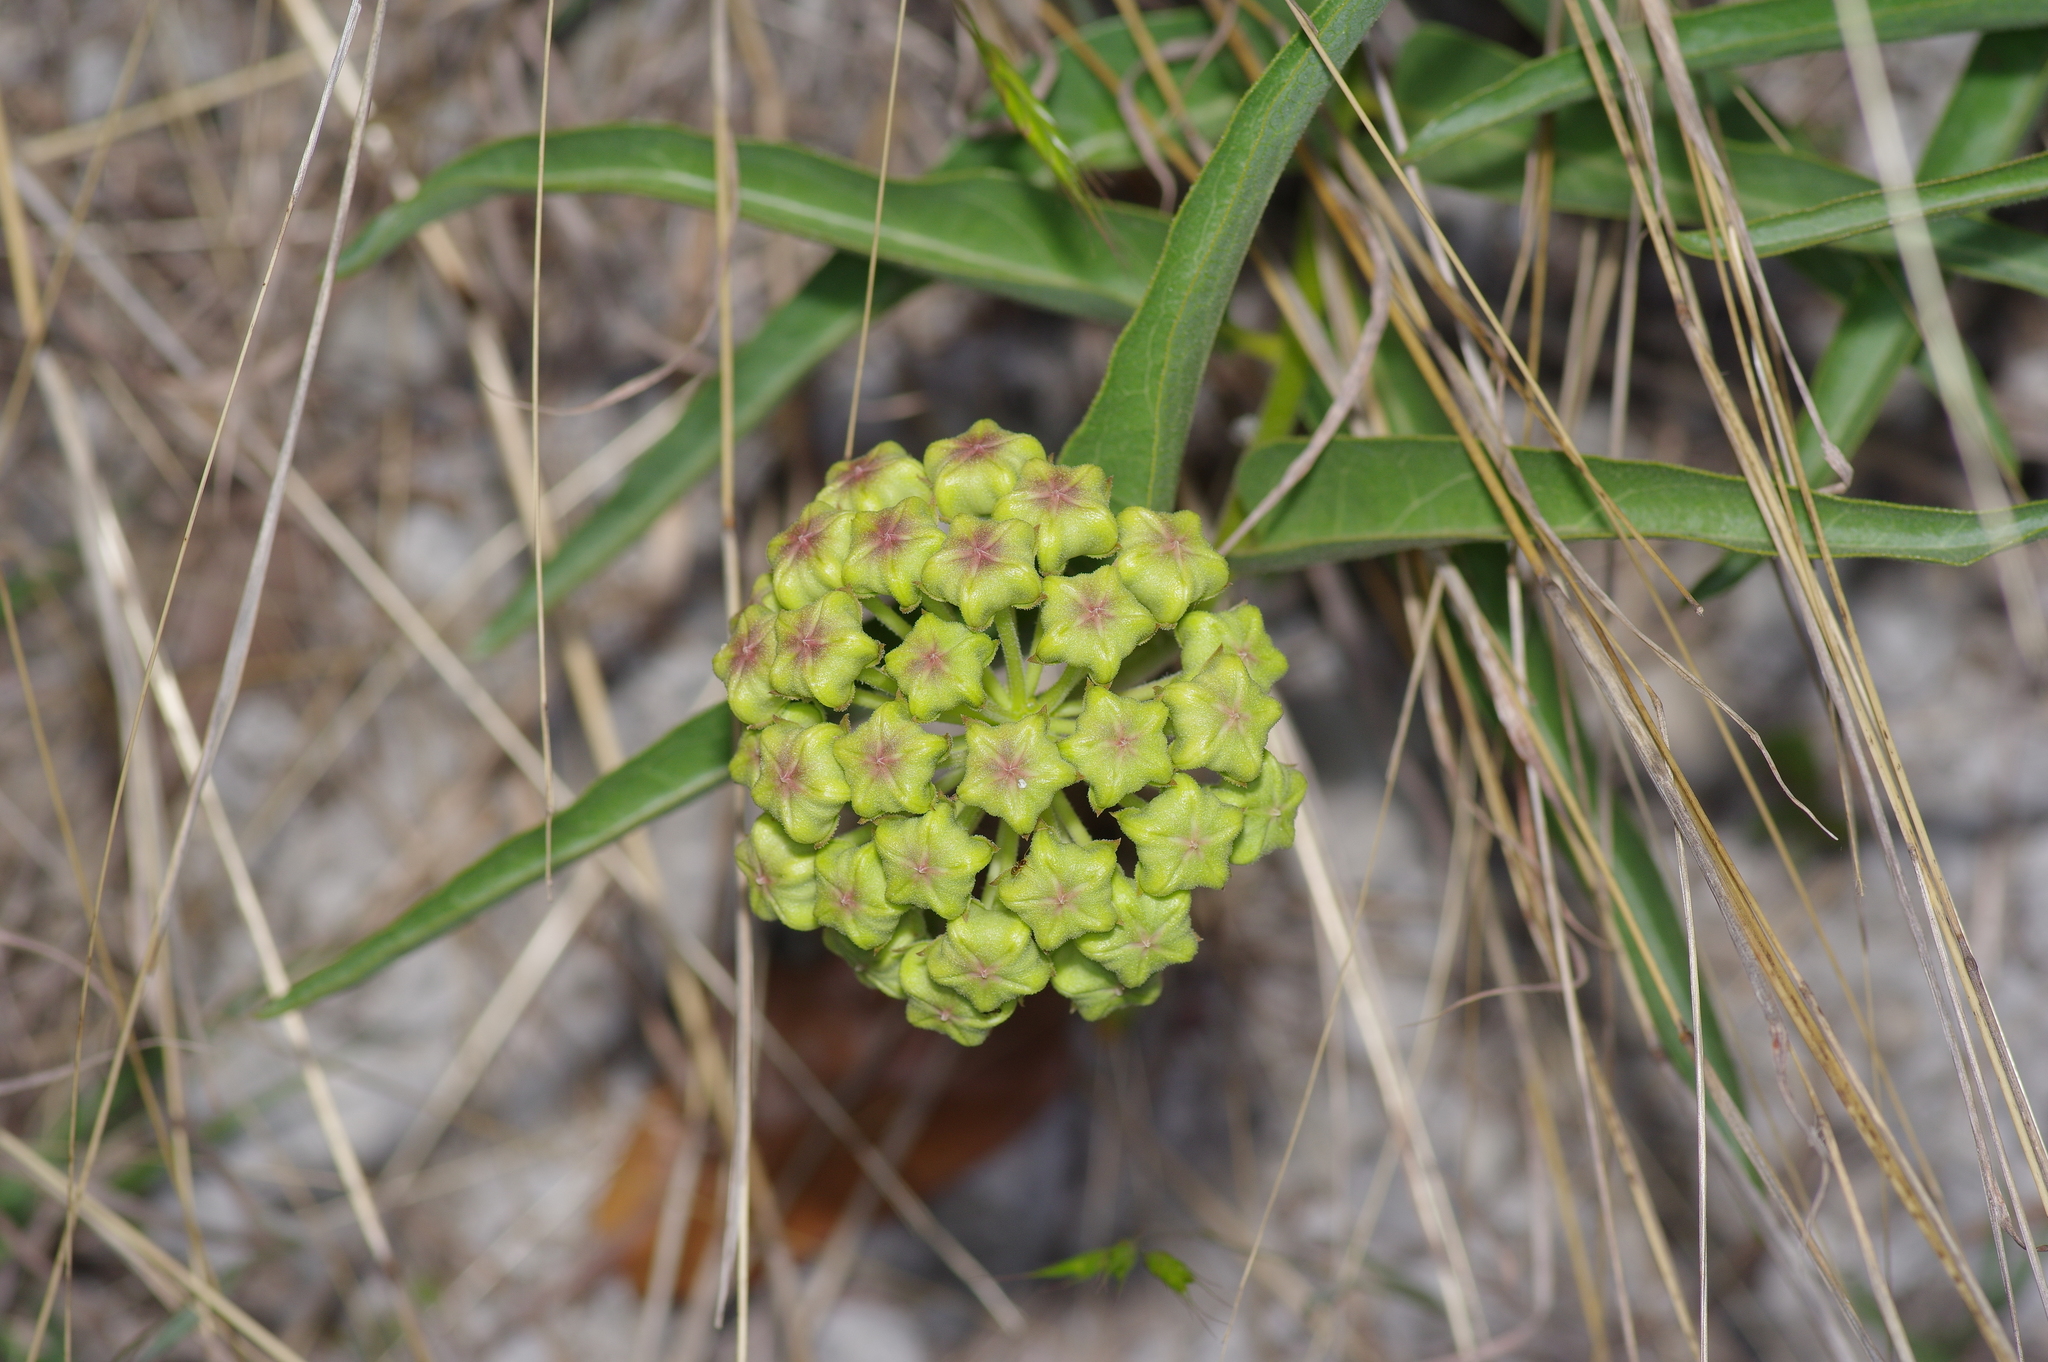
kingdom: Plantae
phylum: Tracheophyta
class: Magnoliopsida
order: Gentianales
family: Apocynaceae
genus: Asclepias
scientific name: Asclepias asperula
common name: Antelope horns
